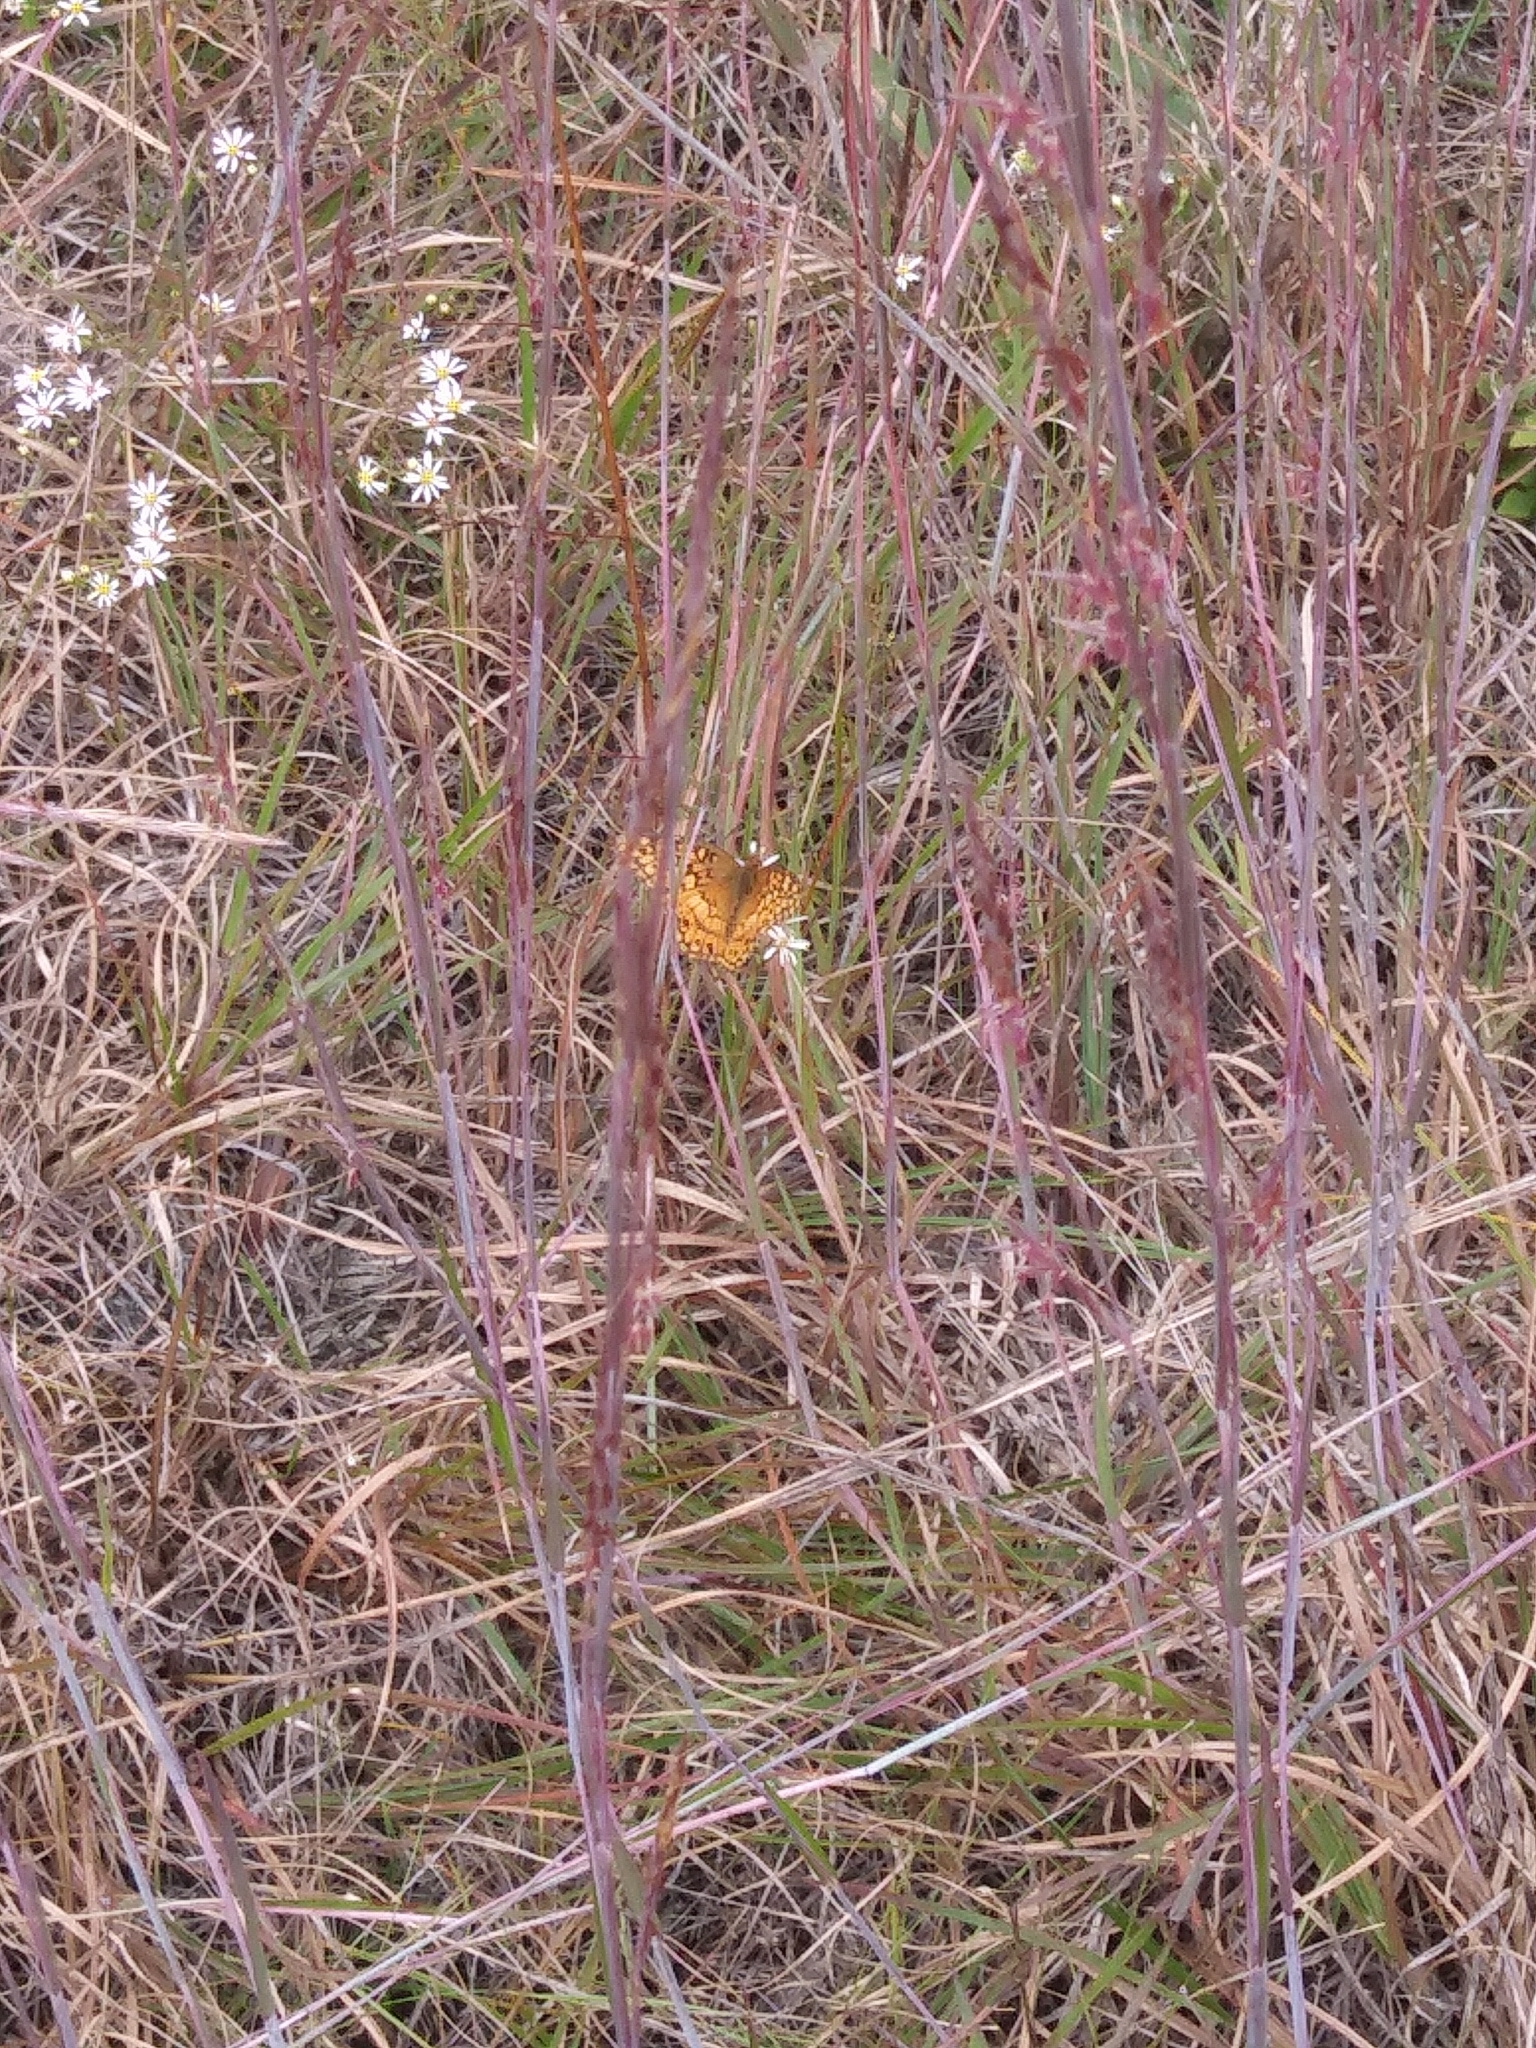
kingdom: Animalia
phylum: Arthropoda
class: Insecta
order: Lepidoptera
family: Nymphalidae
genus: Euptoieta
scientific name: Euptoieta claudia
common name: Variegated fritillary
